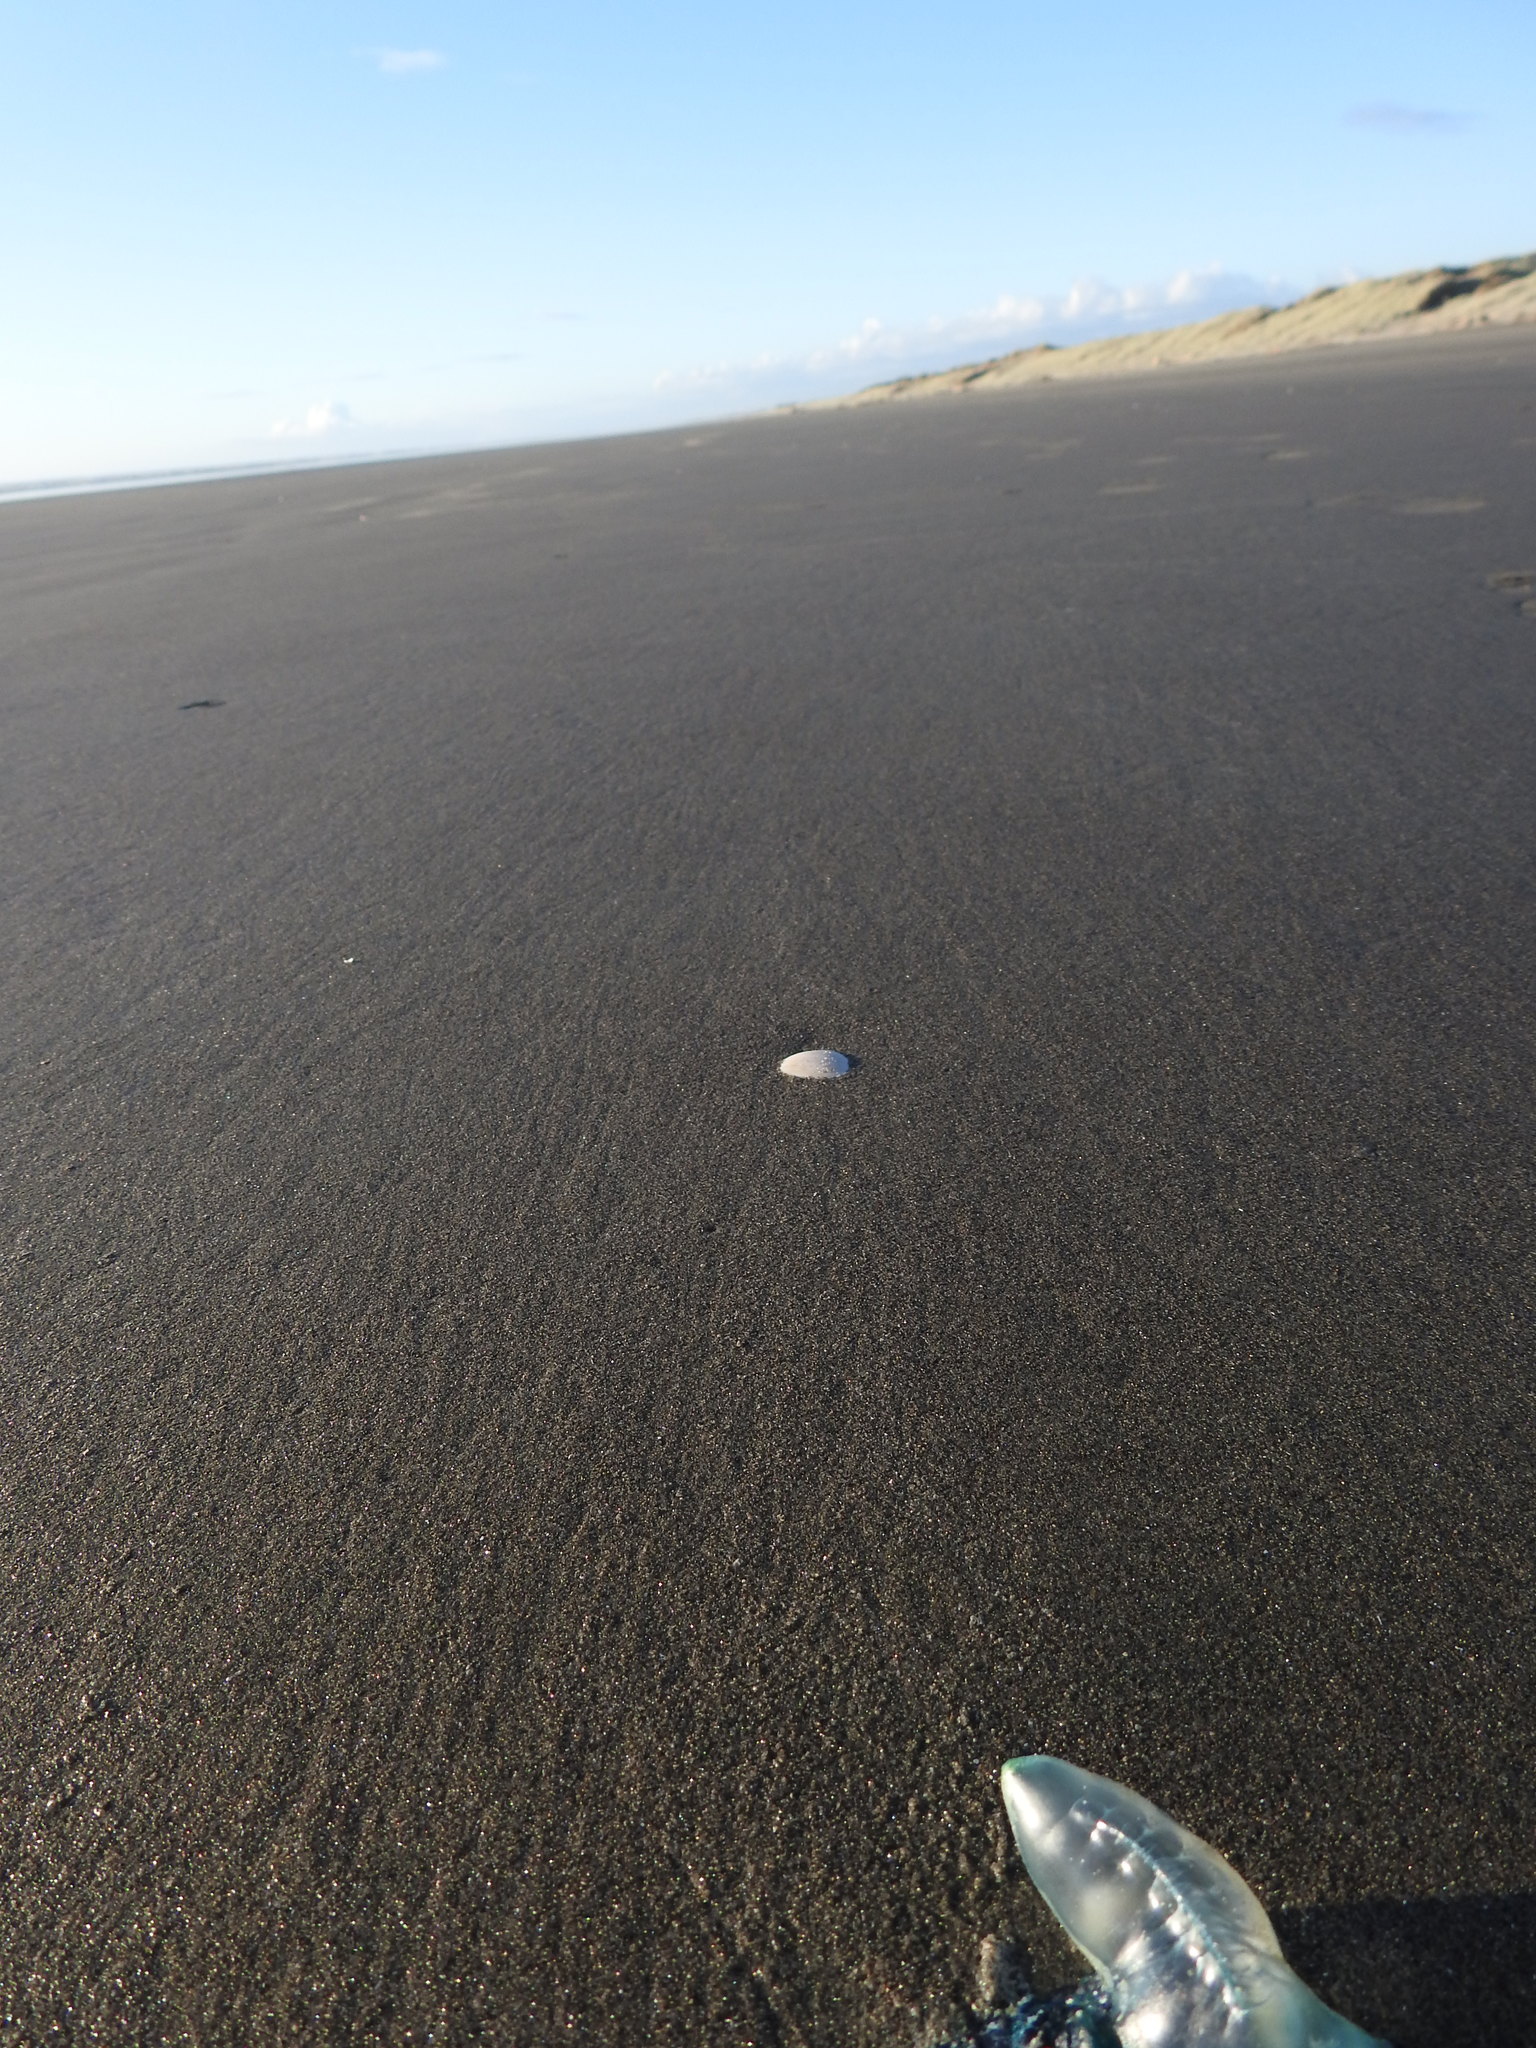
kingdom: Animalia
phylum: Cnidaria
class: Hydrozoa
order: Siphonophorae
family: Physaliidae
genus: Physalia
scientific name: Physalia physalis
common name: Portuguese man-of-war
